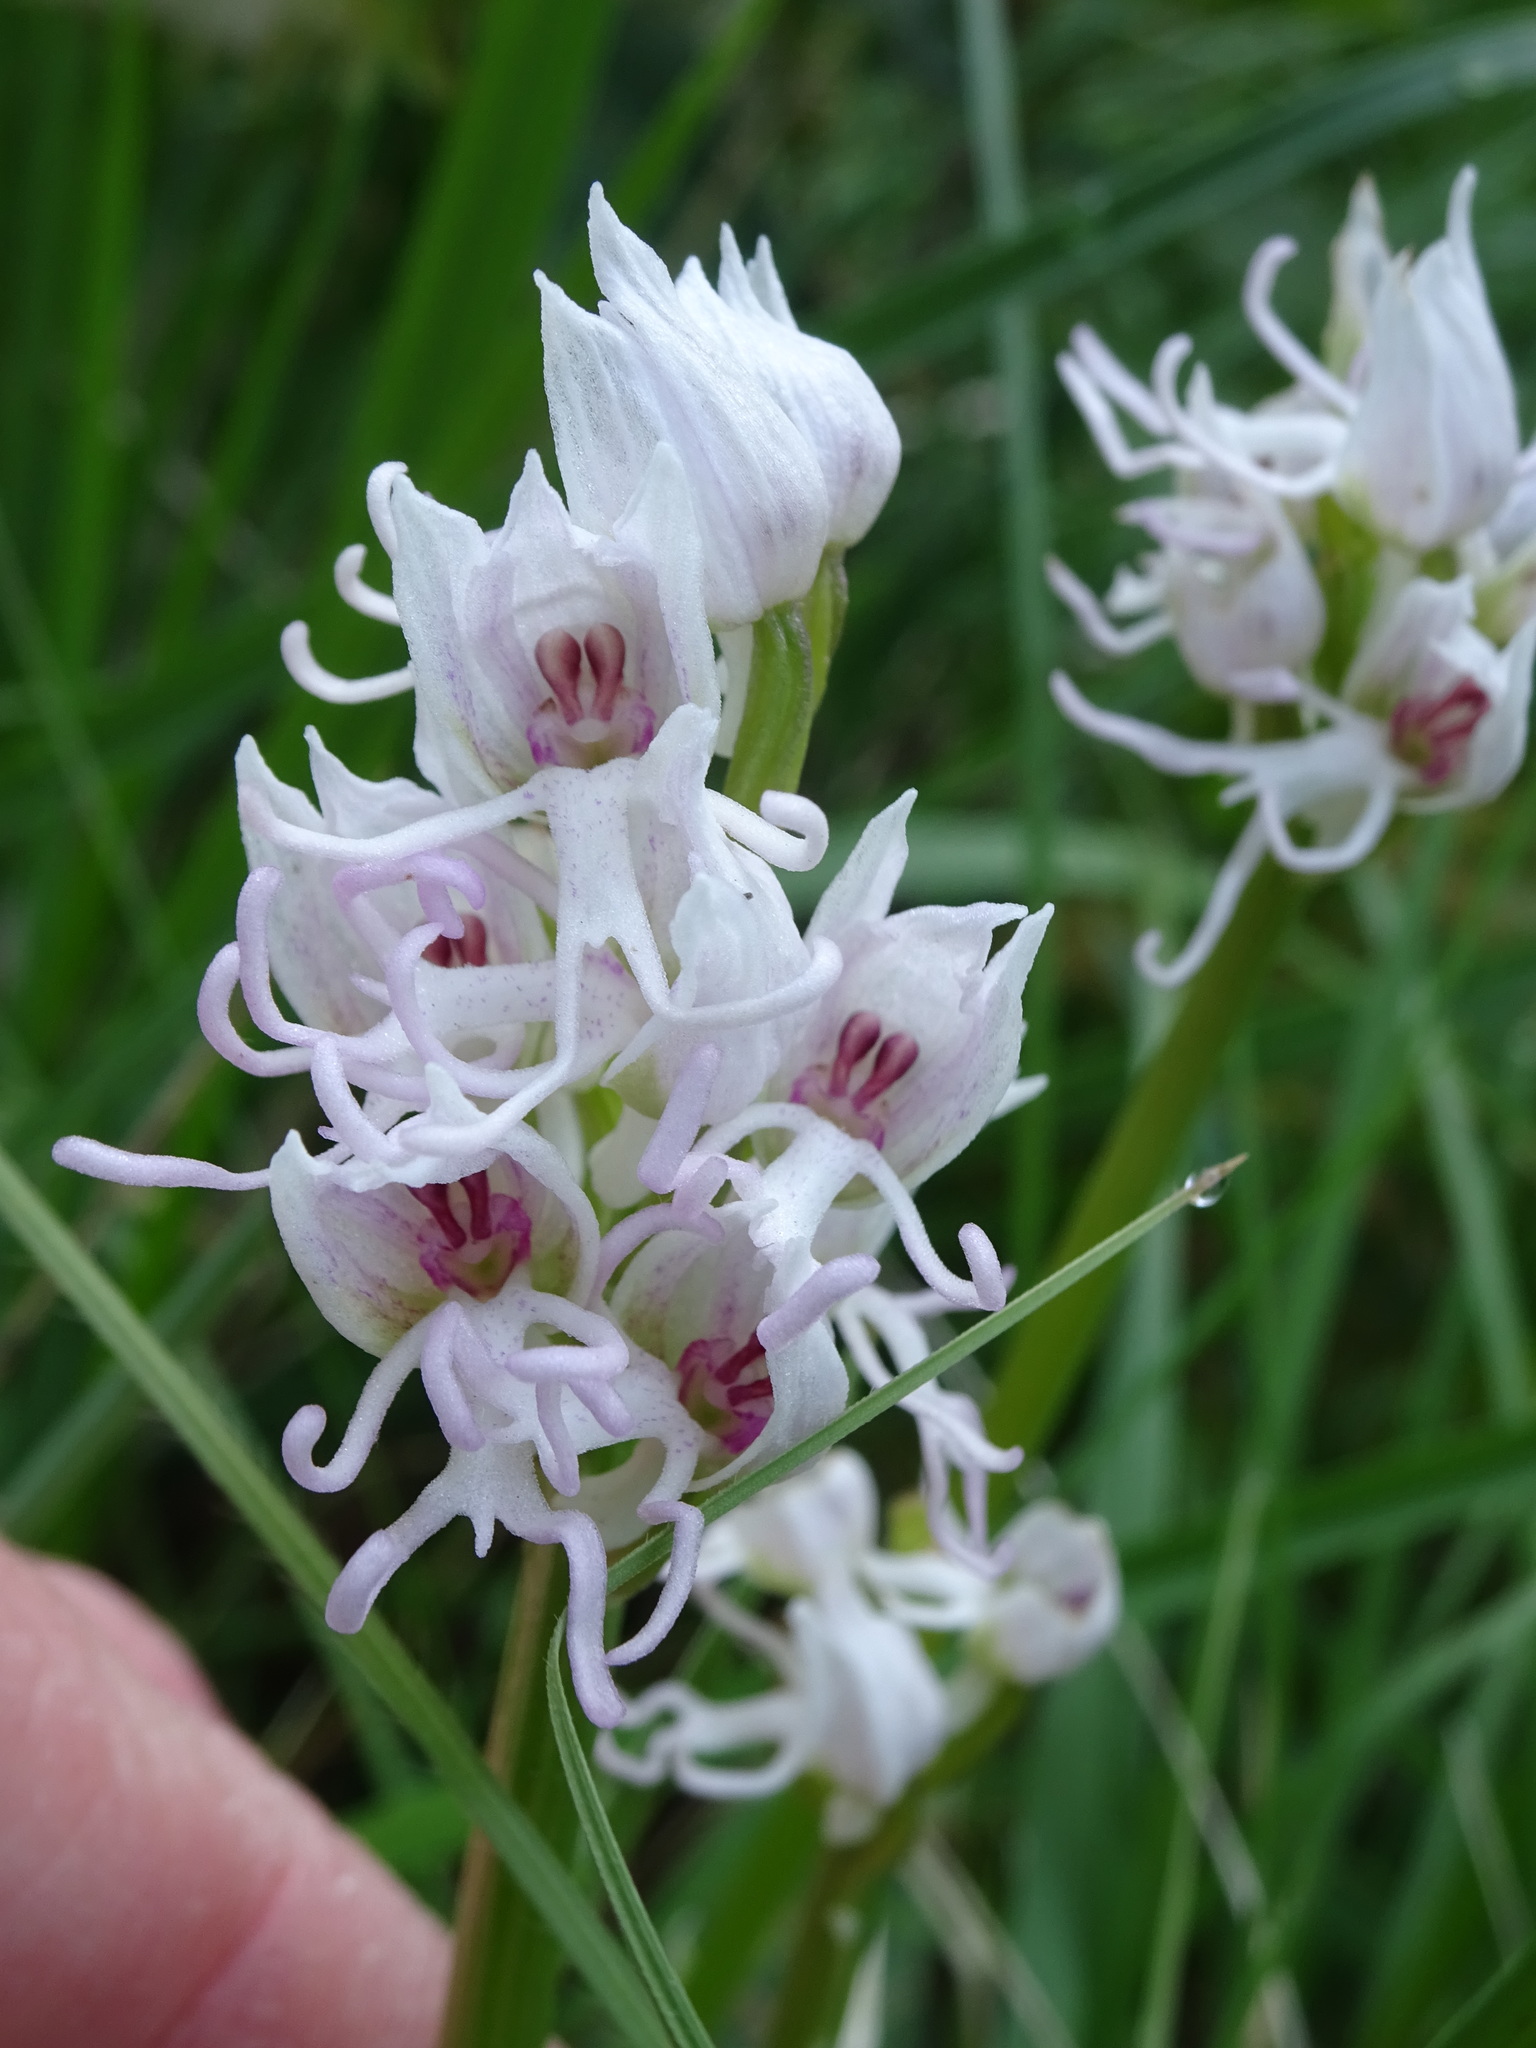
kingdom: Plantae
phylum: Tracheophyta
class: Liliopsida
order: Asparagales
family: Orchidaceae
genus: Orchis
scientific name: Orchis simia
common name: Monkey orchid
